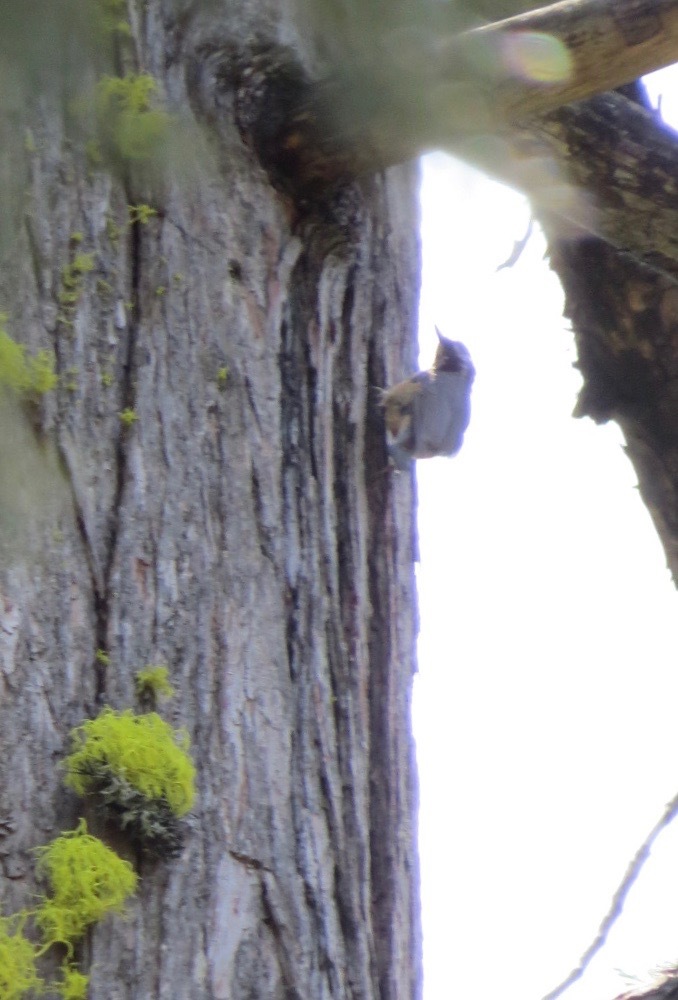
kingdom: Animalia
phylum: Chordata
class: Aves
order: Passeriformes
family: Sittidae
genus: Sitta
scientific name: Sitta canadensis
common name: Red-breasted nuthatch
